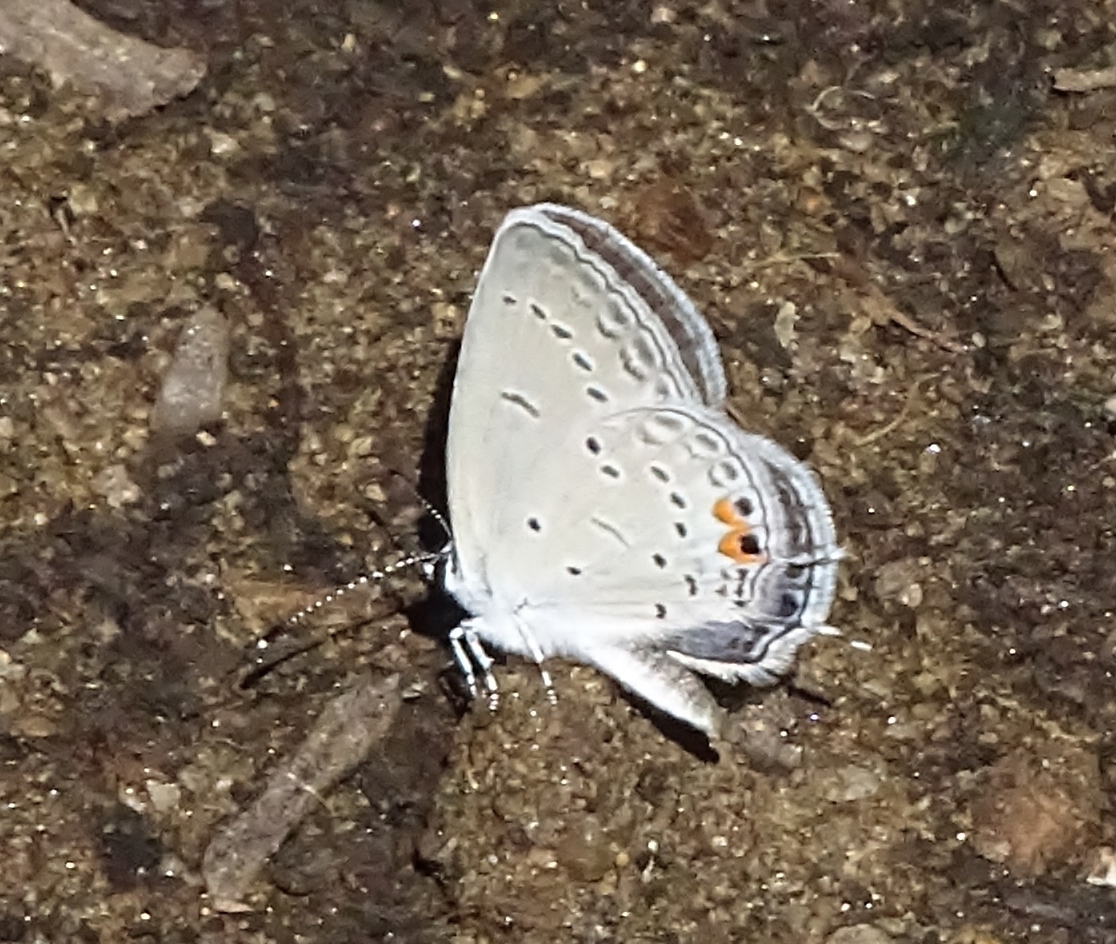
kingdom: Animalia
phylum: Arthropoda
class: Insecta
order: Lepidoptera
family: Lycaenidae
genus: Elkalyce
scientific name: Elkalyce comyntas
